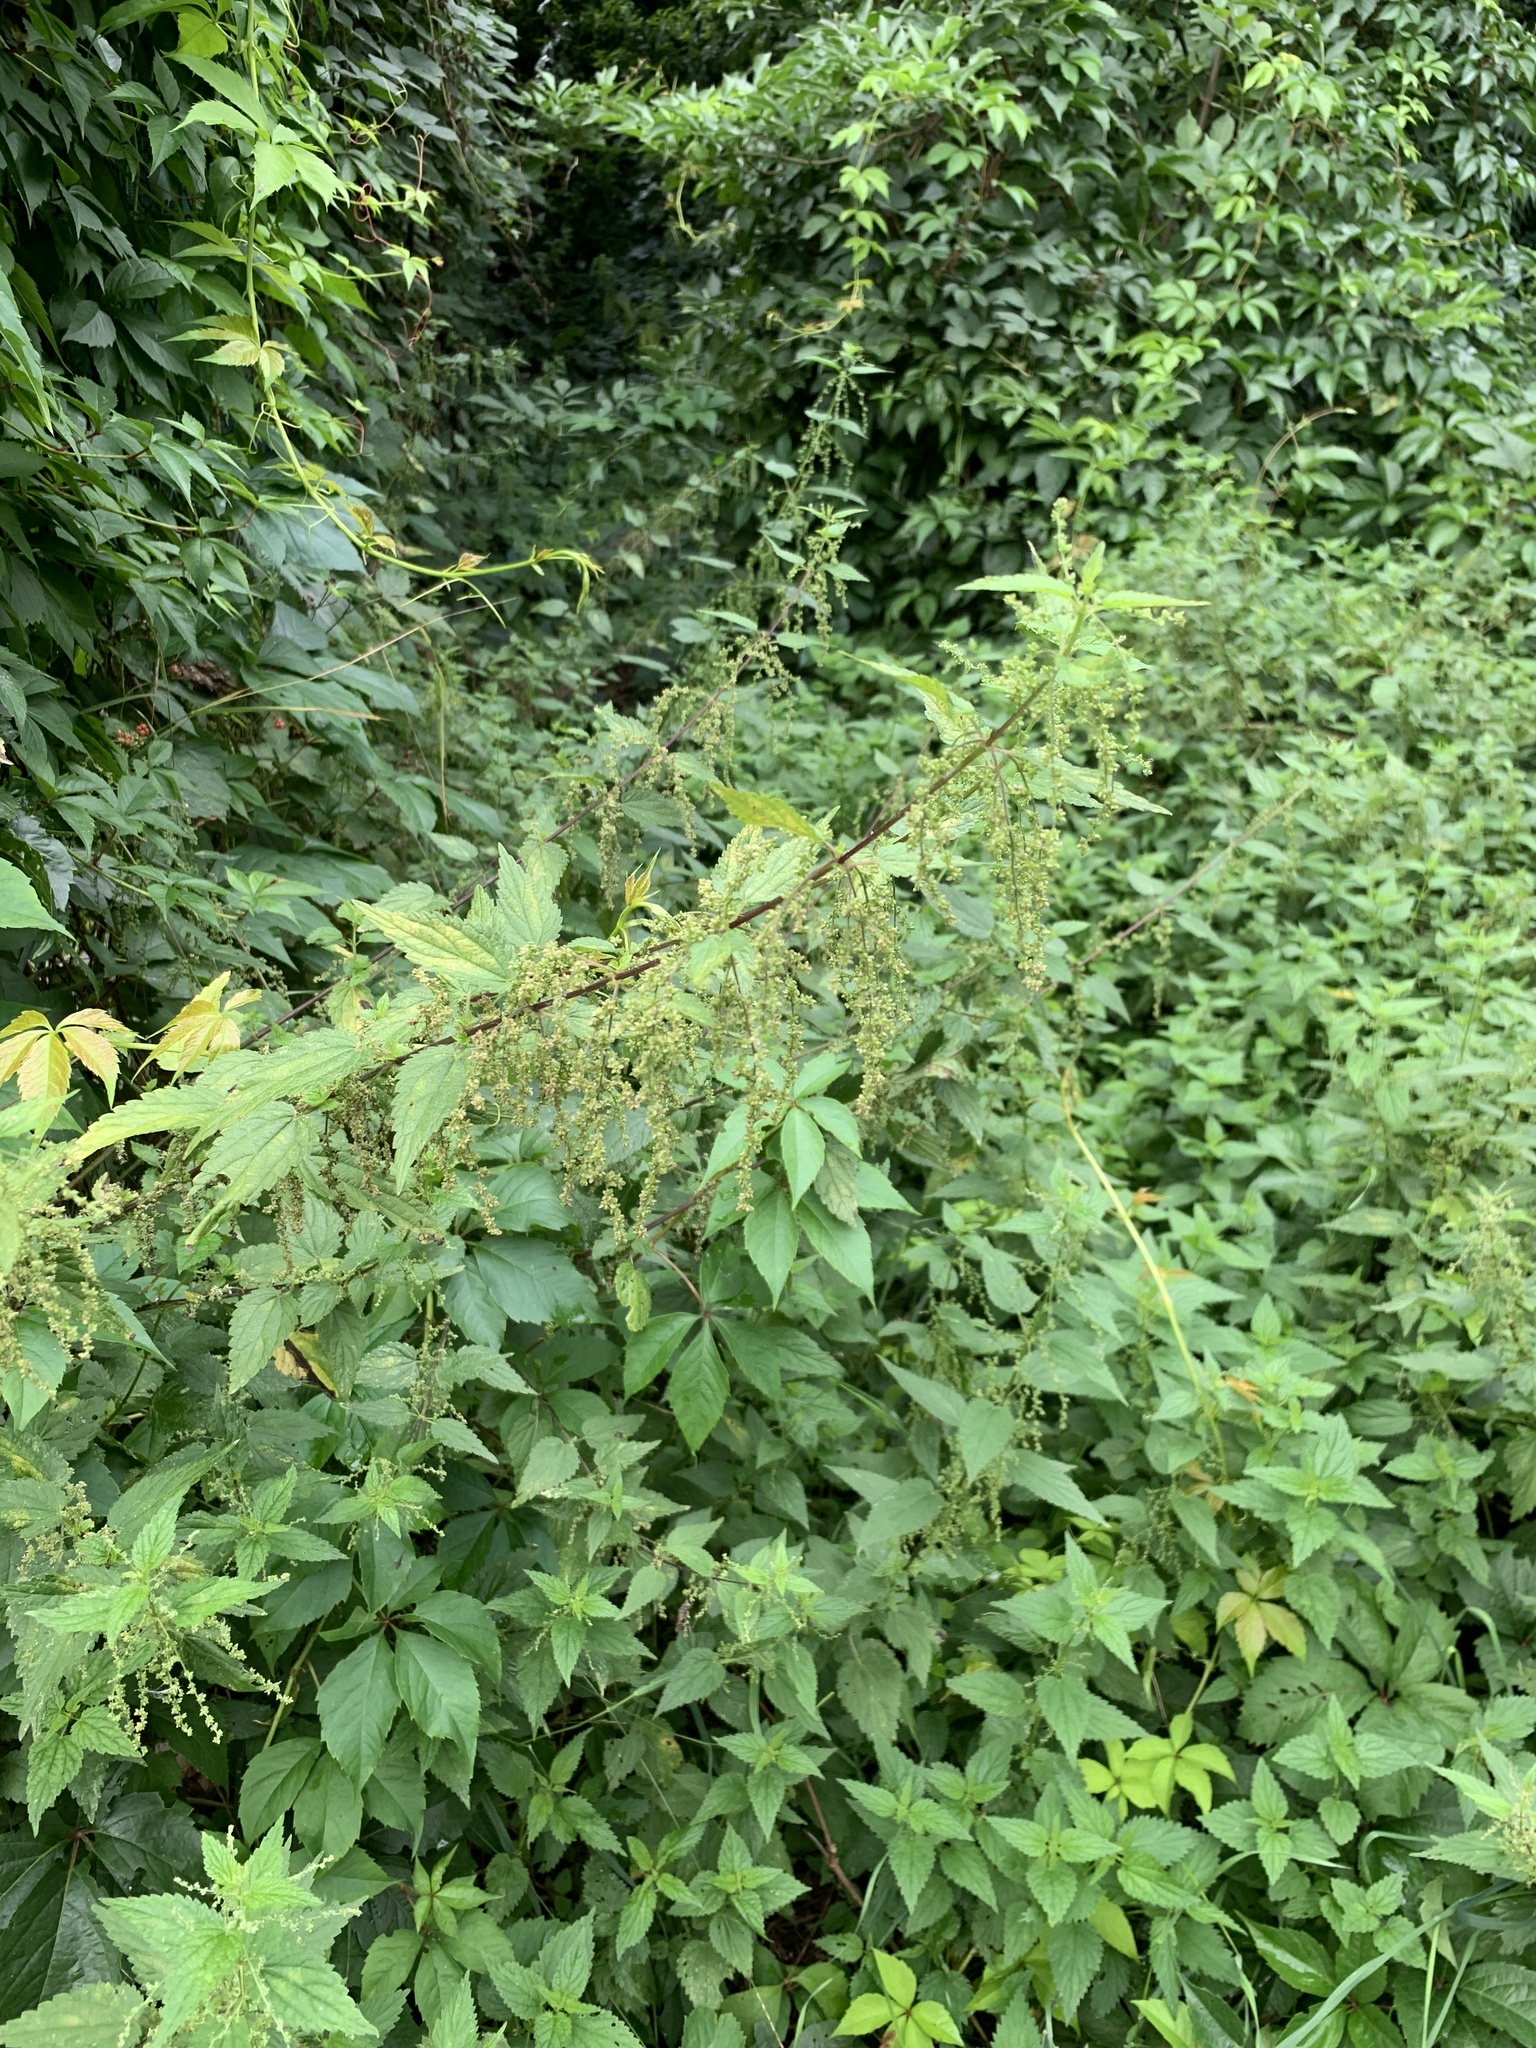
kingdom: Plantae
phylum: Tracheophyta
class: Magnoliopsida
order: Rosales
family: Urticaceae
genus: Urtica
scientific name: Urtica dioica
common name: Common nettle
